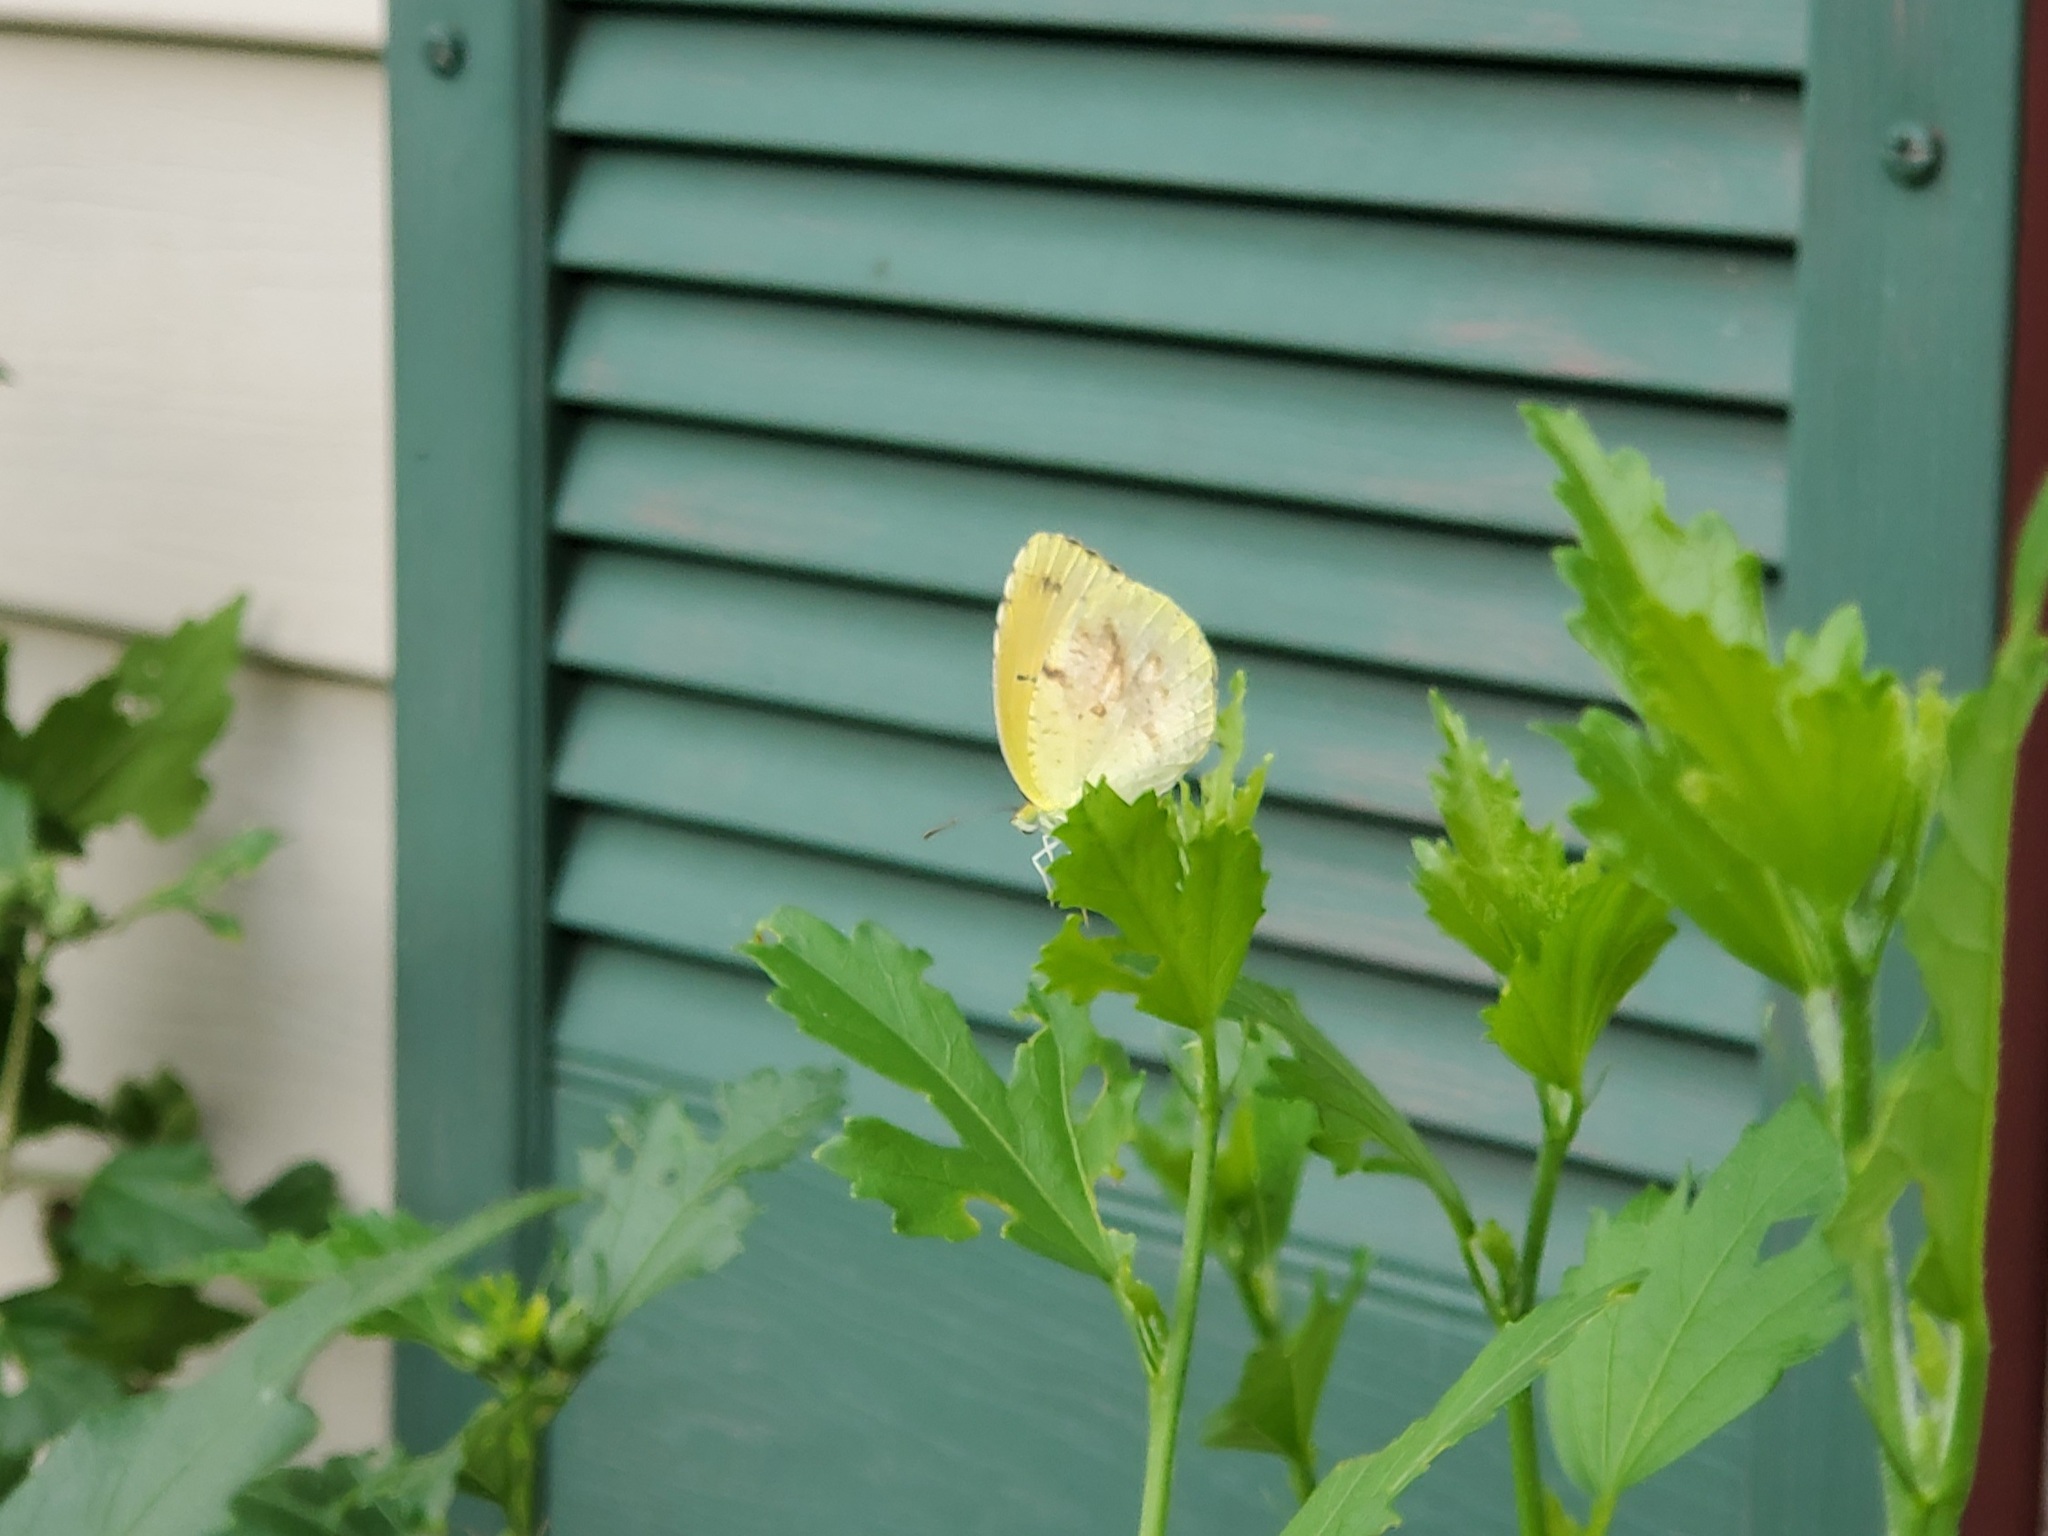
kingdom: Animalia
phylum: Arthropoda
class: Insecta
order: Lepidoptera
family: Pieridae
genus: Abaeis
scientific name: Abaeis nicippe
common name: Sleepy orange
